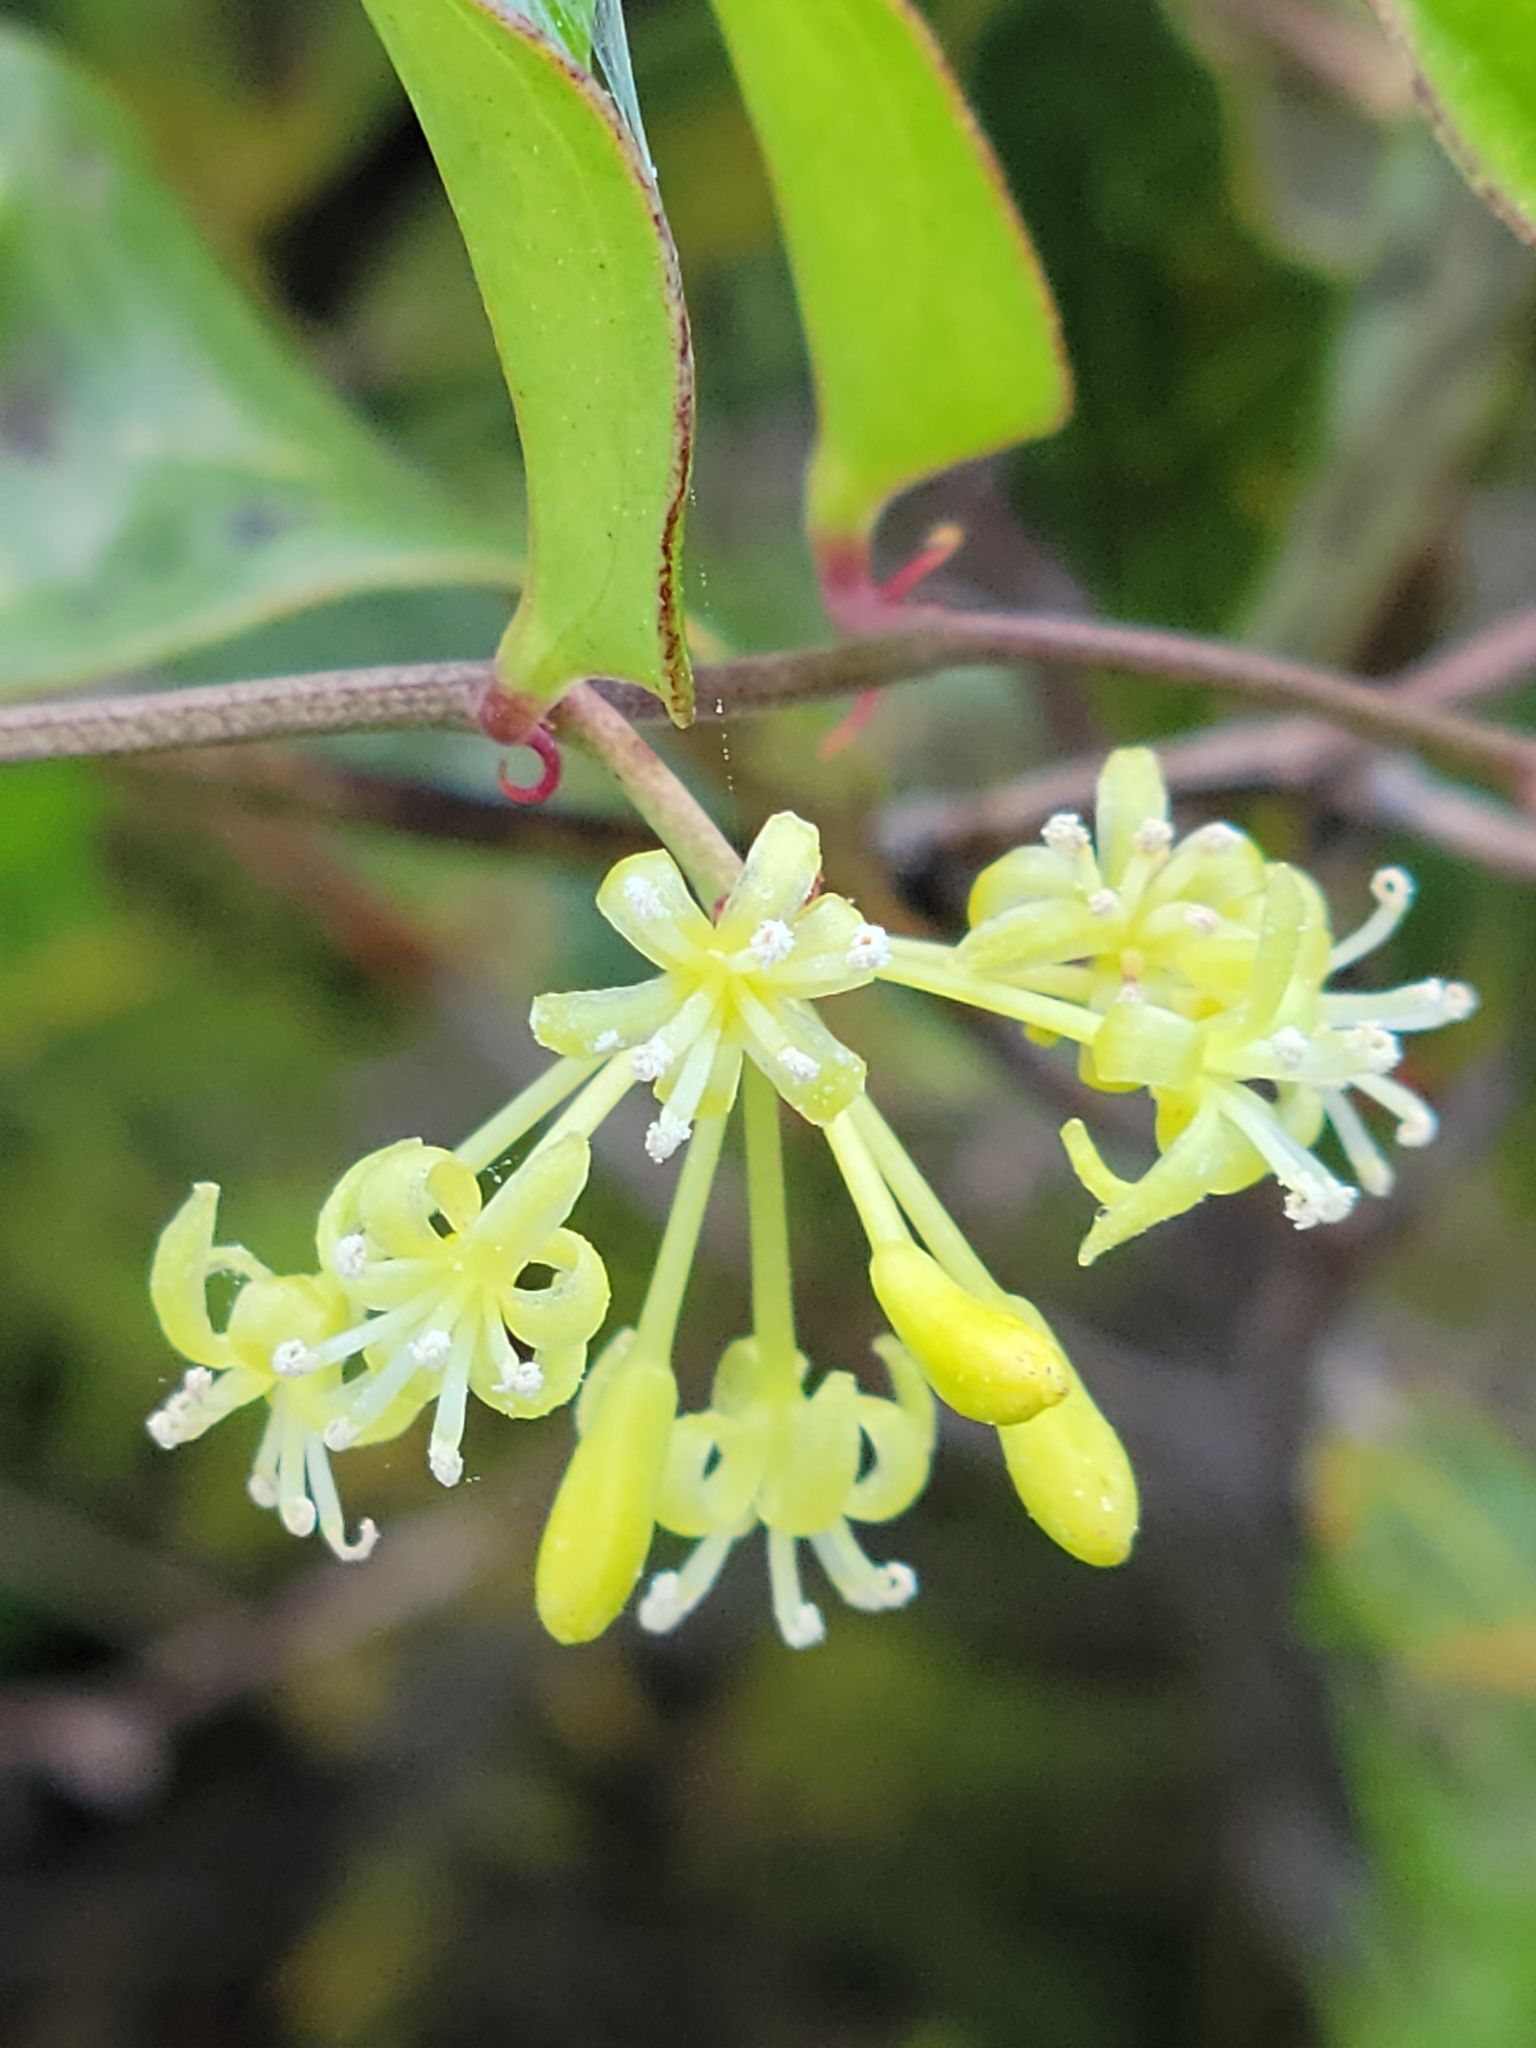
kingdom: Plantae
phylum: Tracheophyta
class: Liliopsida
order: Liliales
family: Smilacaceae
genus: Smilax
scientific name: Smilax auriculata
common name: Wild bamboo
